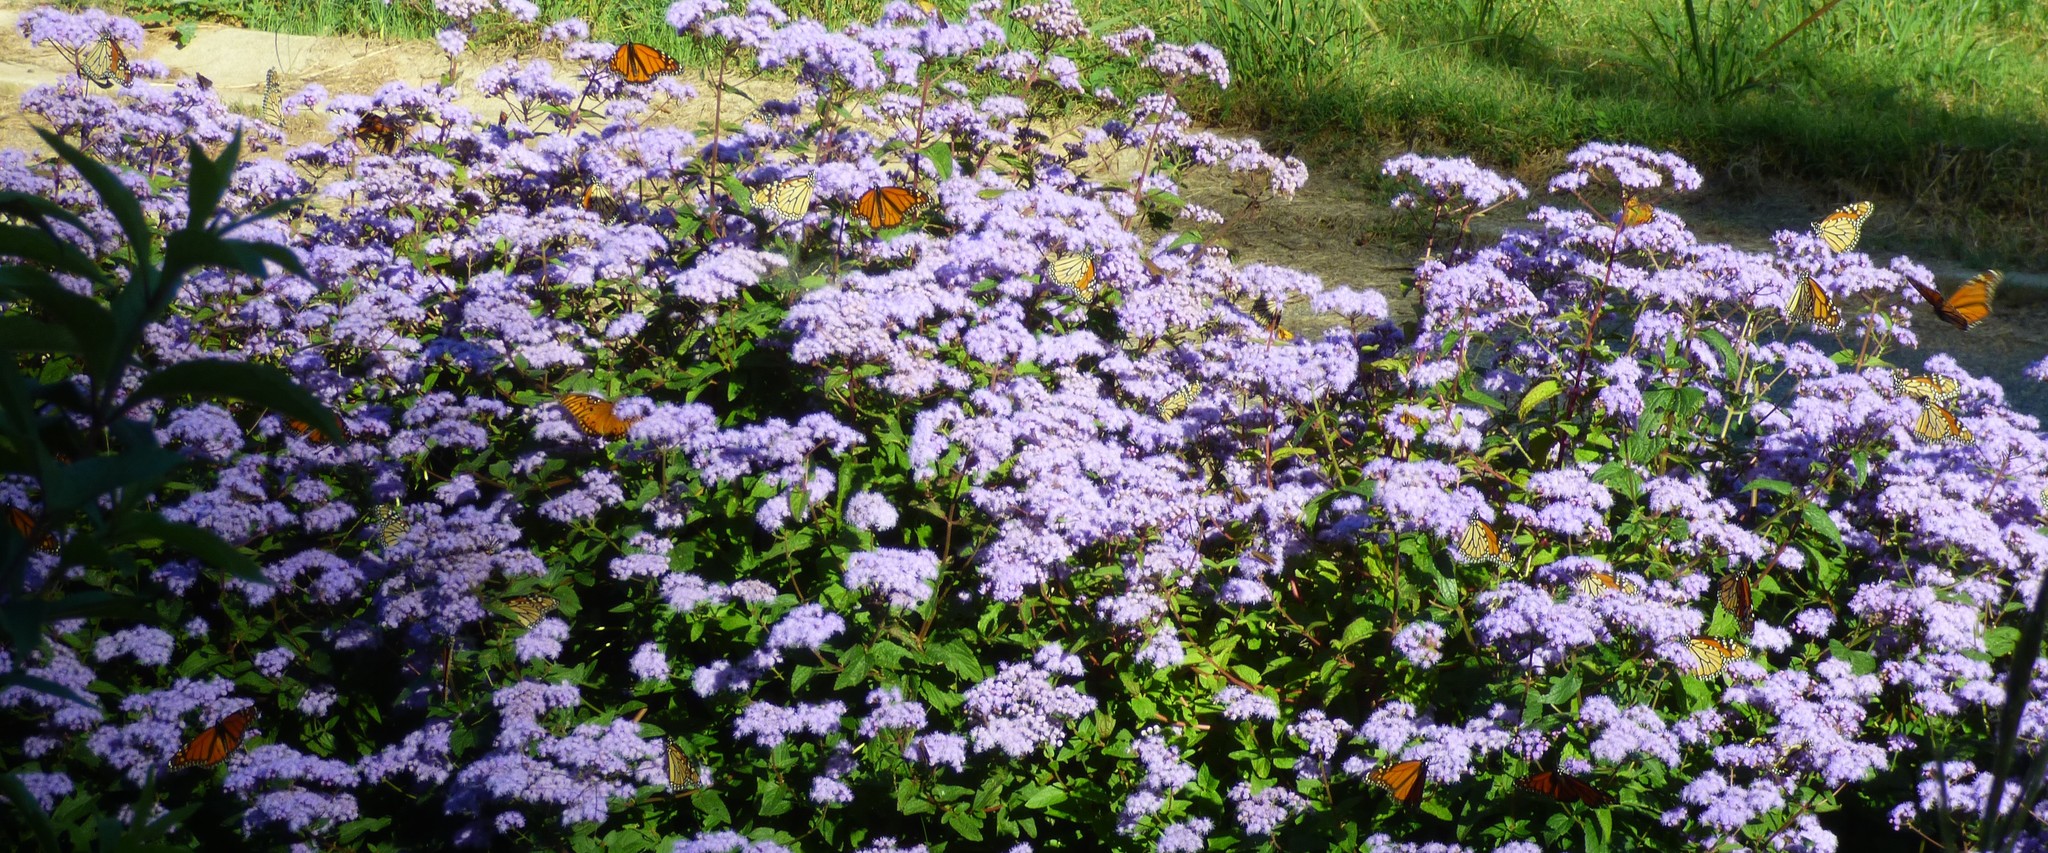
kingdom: Animalia
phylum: Arthropoda
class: Insecta
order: Lepidoptera
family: Nymphalidae
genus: Danaus
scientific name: Danaus plexippus
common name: Monarch
